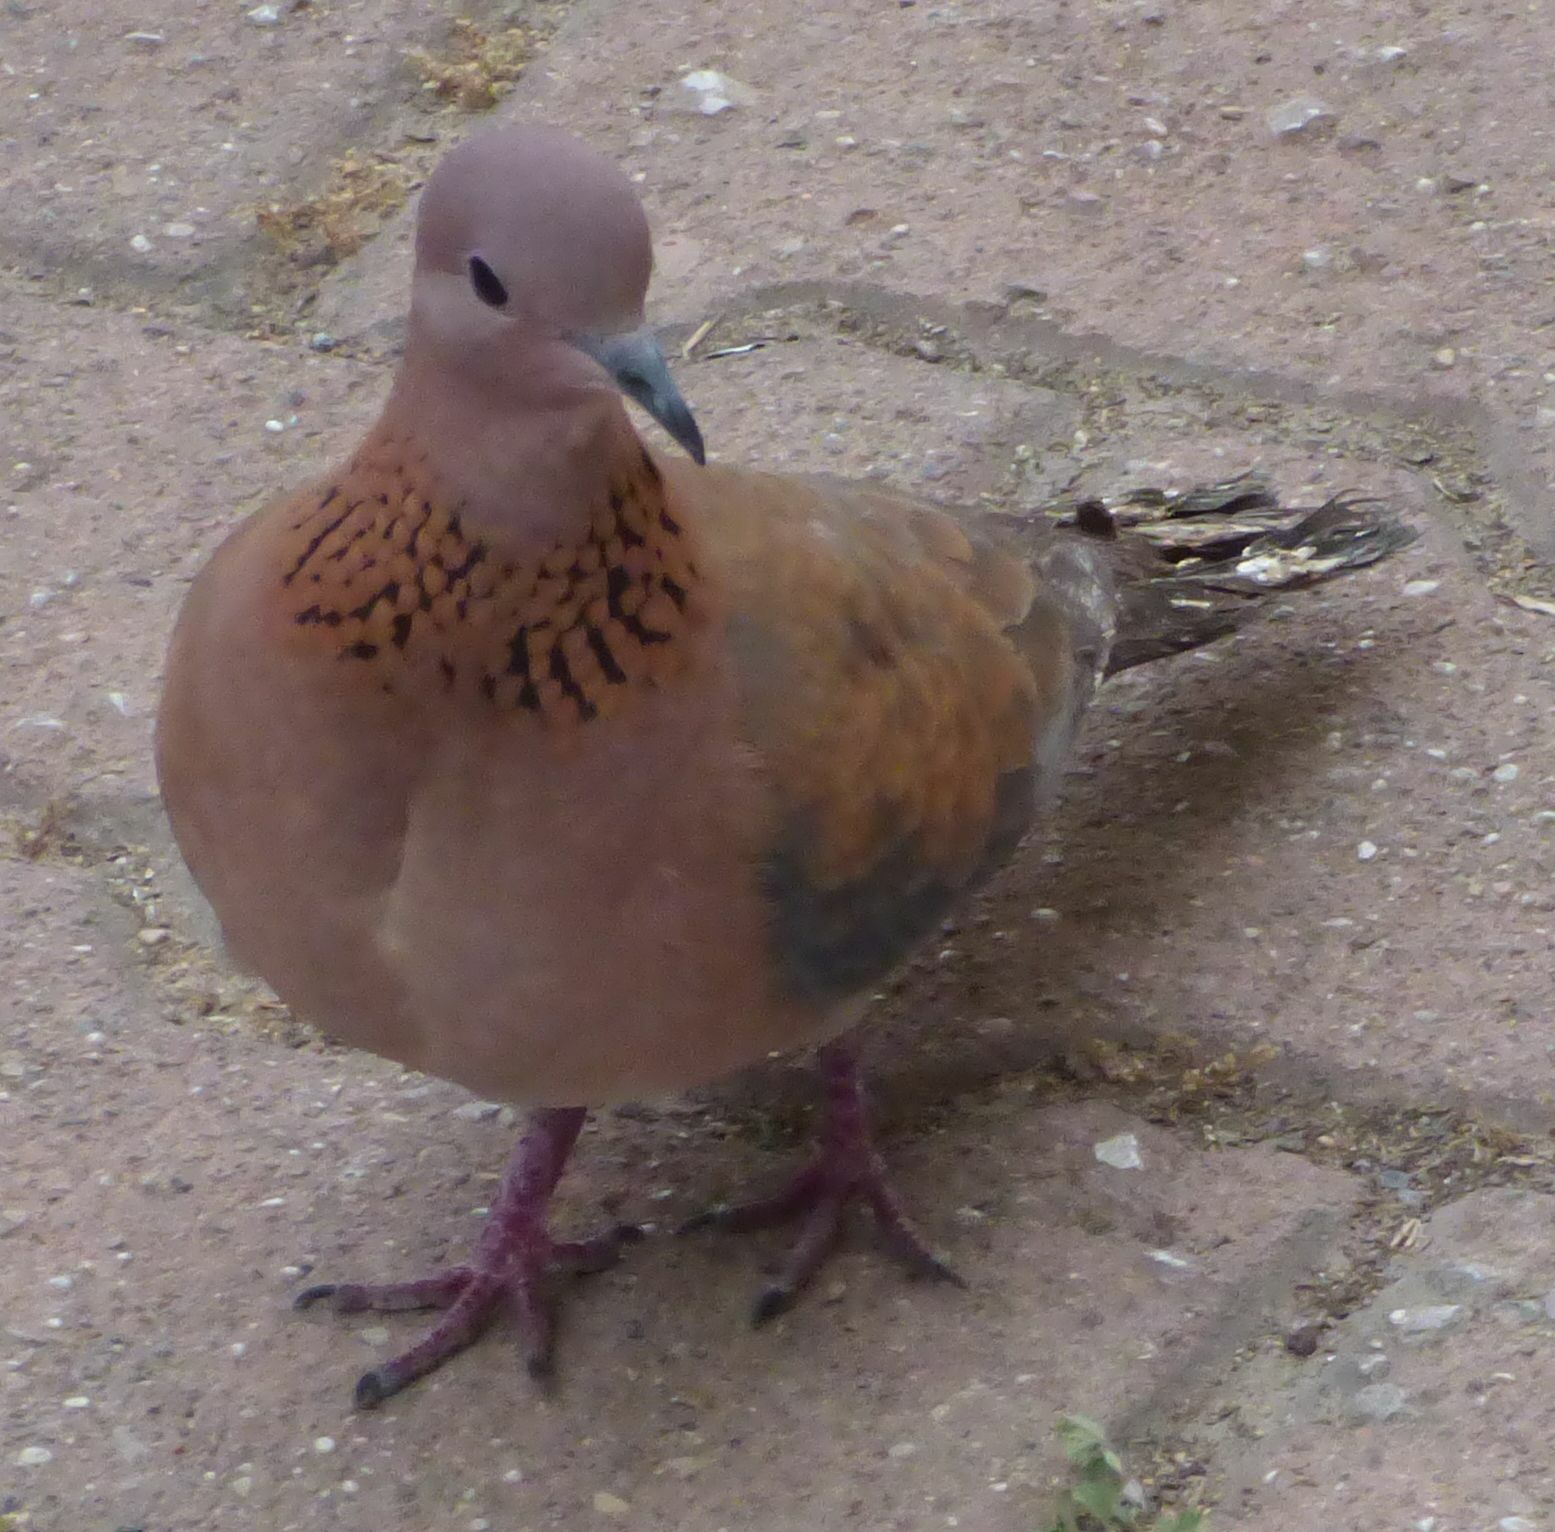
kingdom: Animalia
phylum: Chordata
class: Aves
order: Columbiformes
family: Columbidae
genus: Spilopelia
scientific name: Spilopelia senegalensis
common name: Laughing dove
